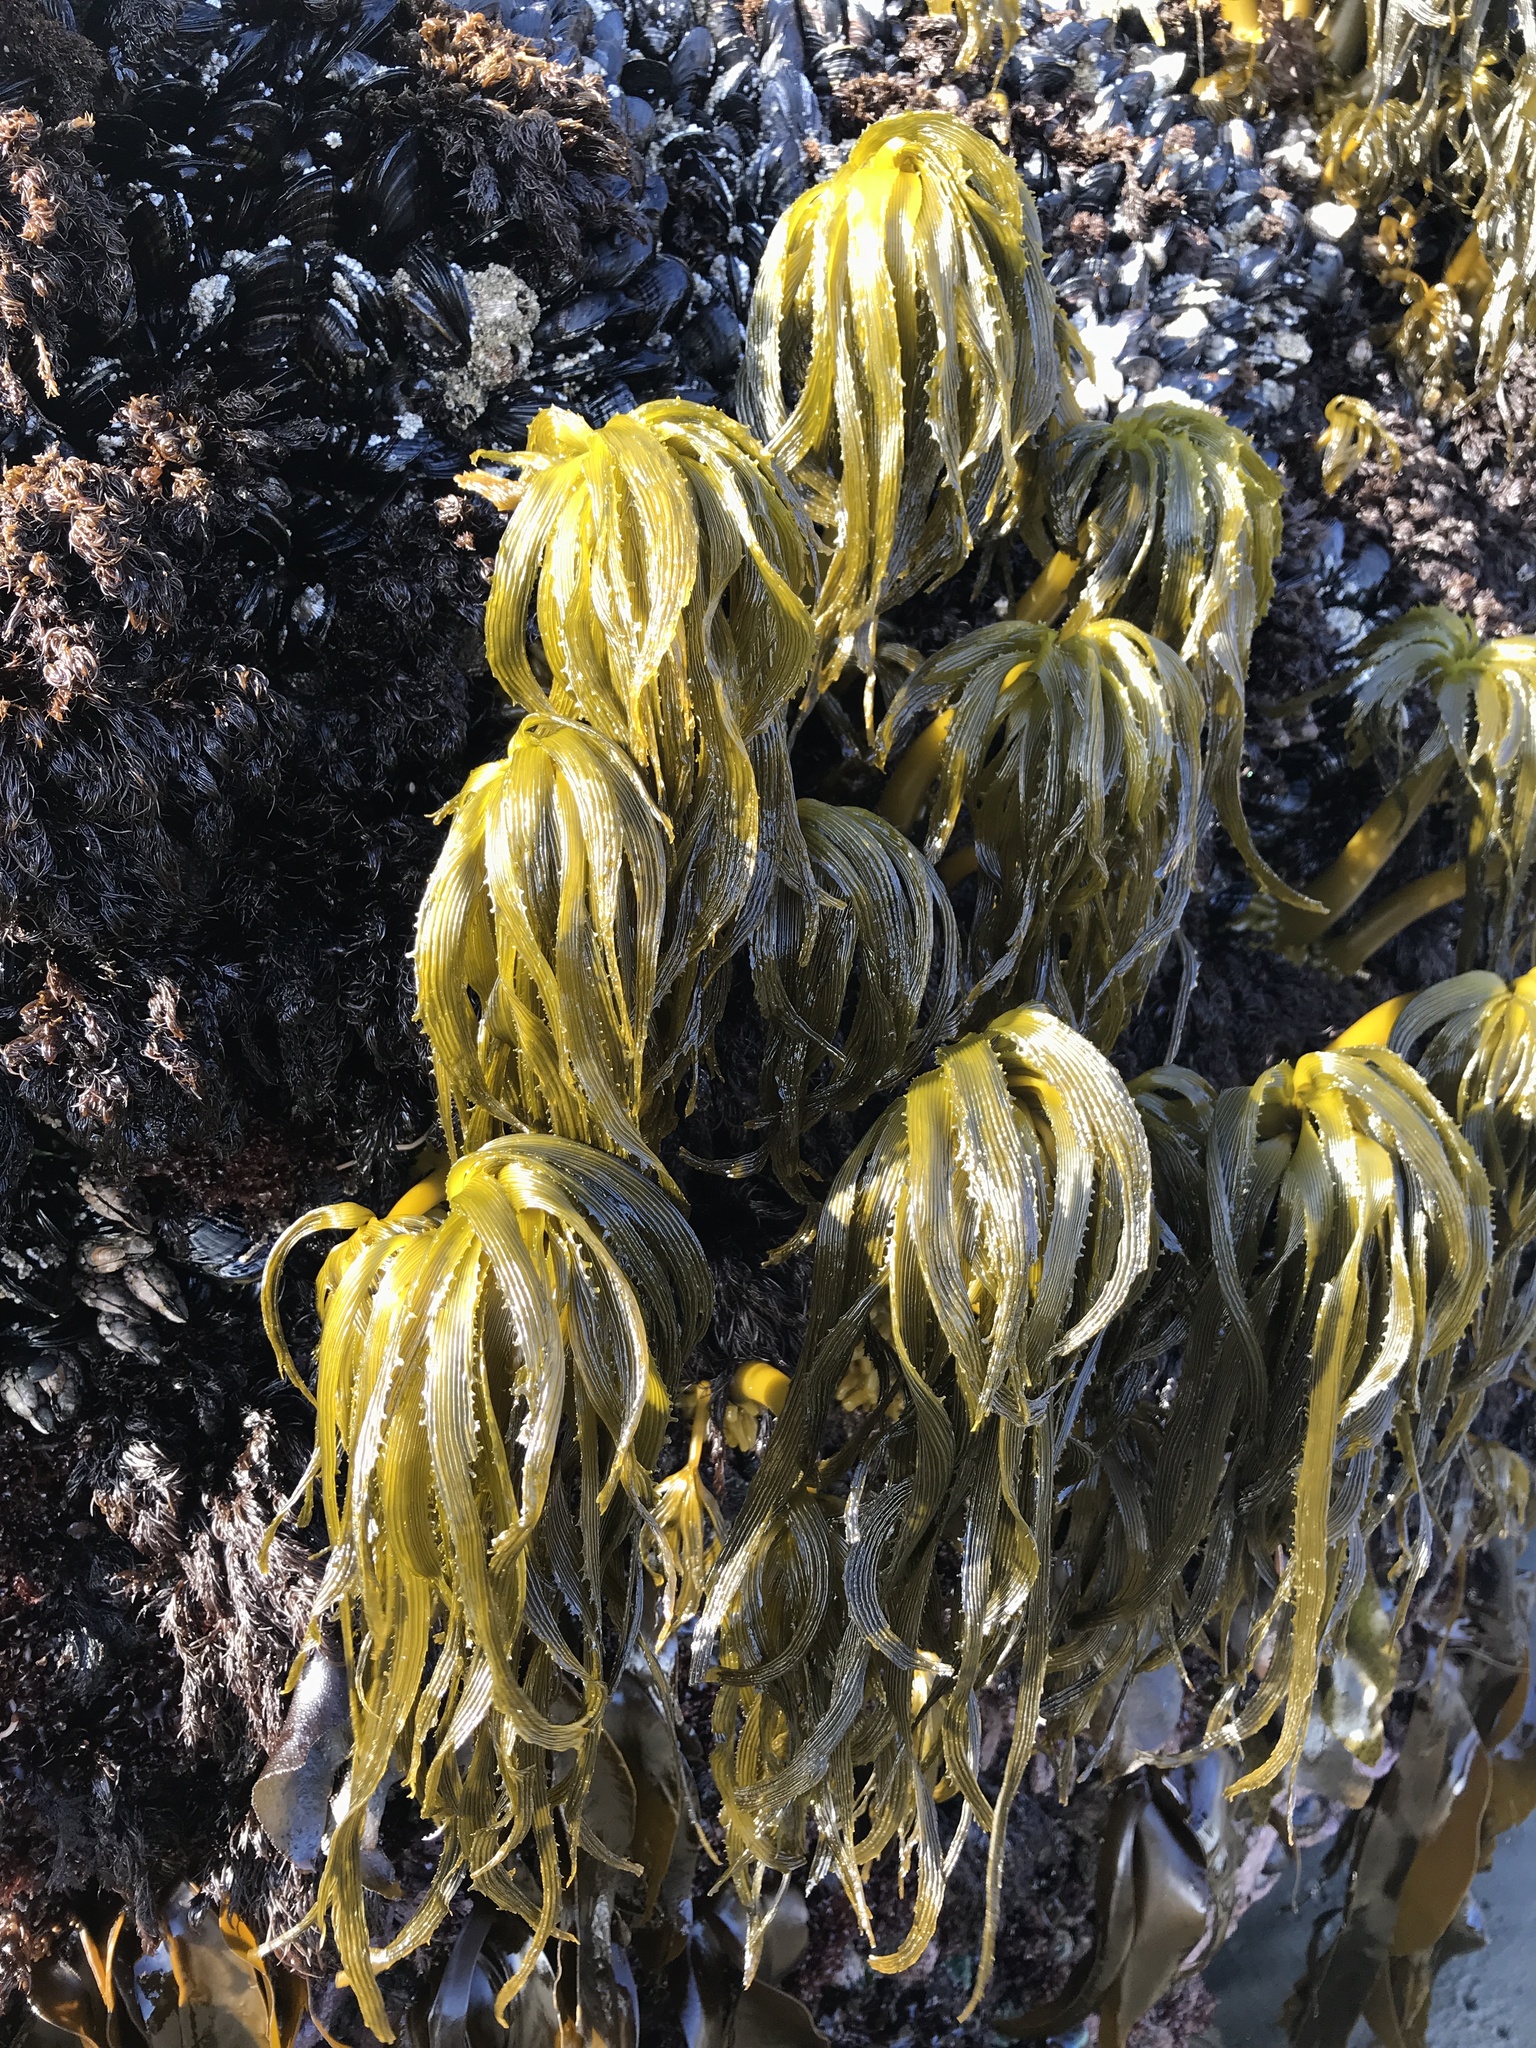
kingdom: Chromista
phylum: Ochrophyta
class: Phaeophyceae
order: Laminariales
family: Laminariaceae
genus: Postelsia
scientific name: Postelsia palmiformis
